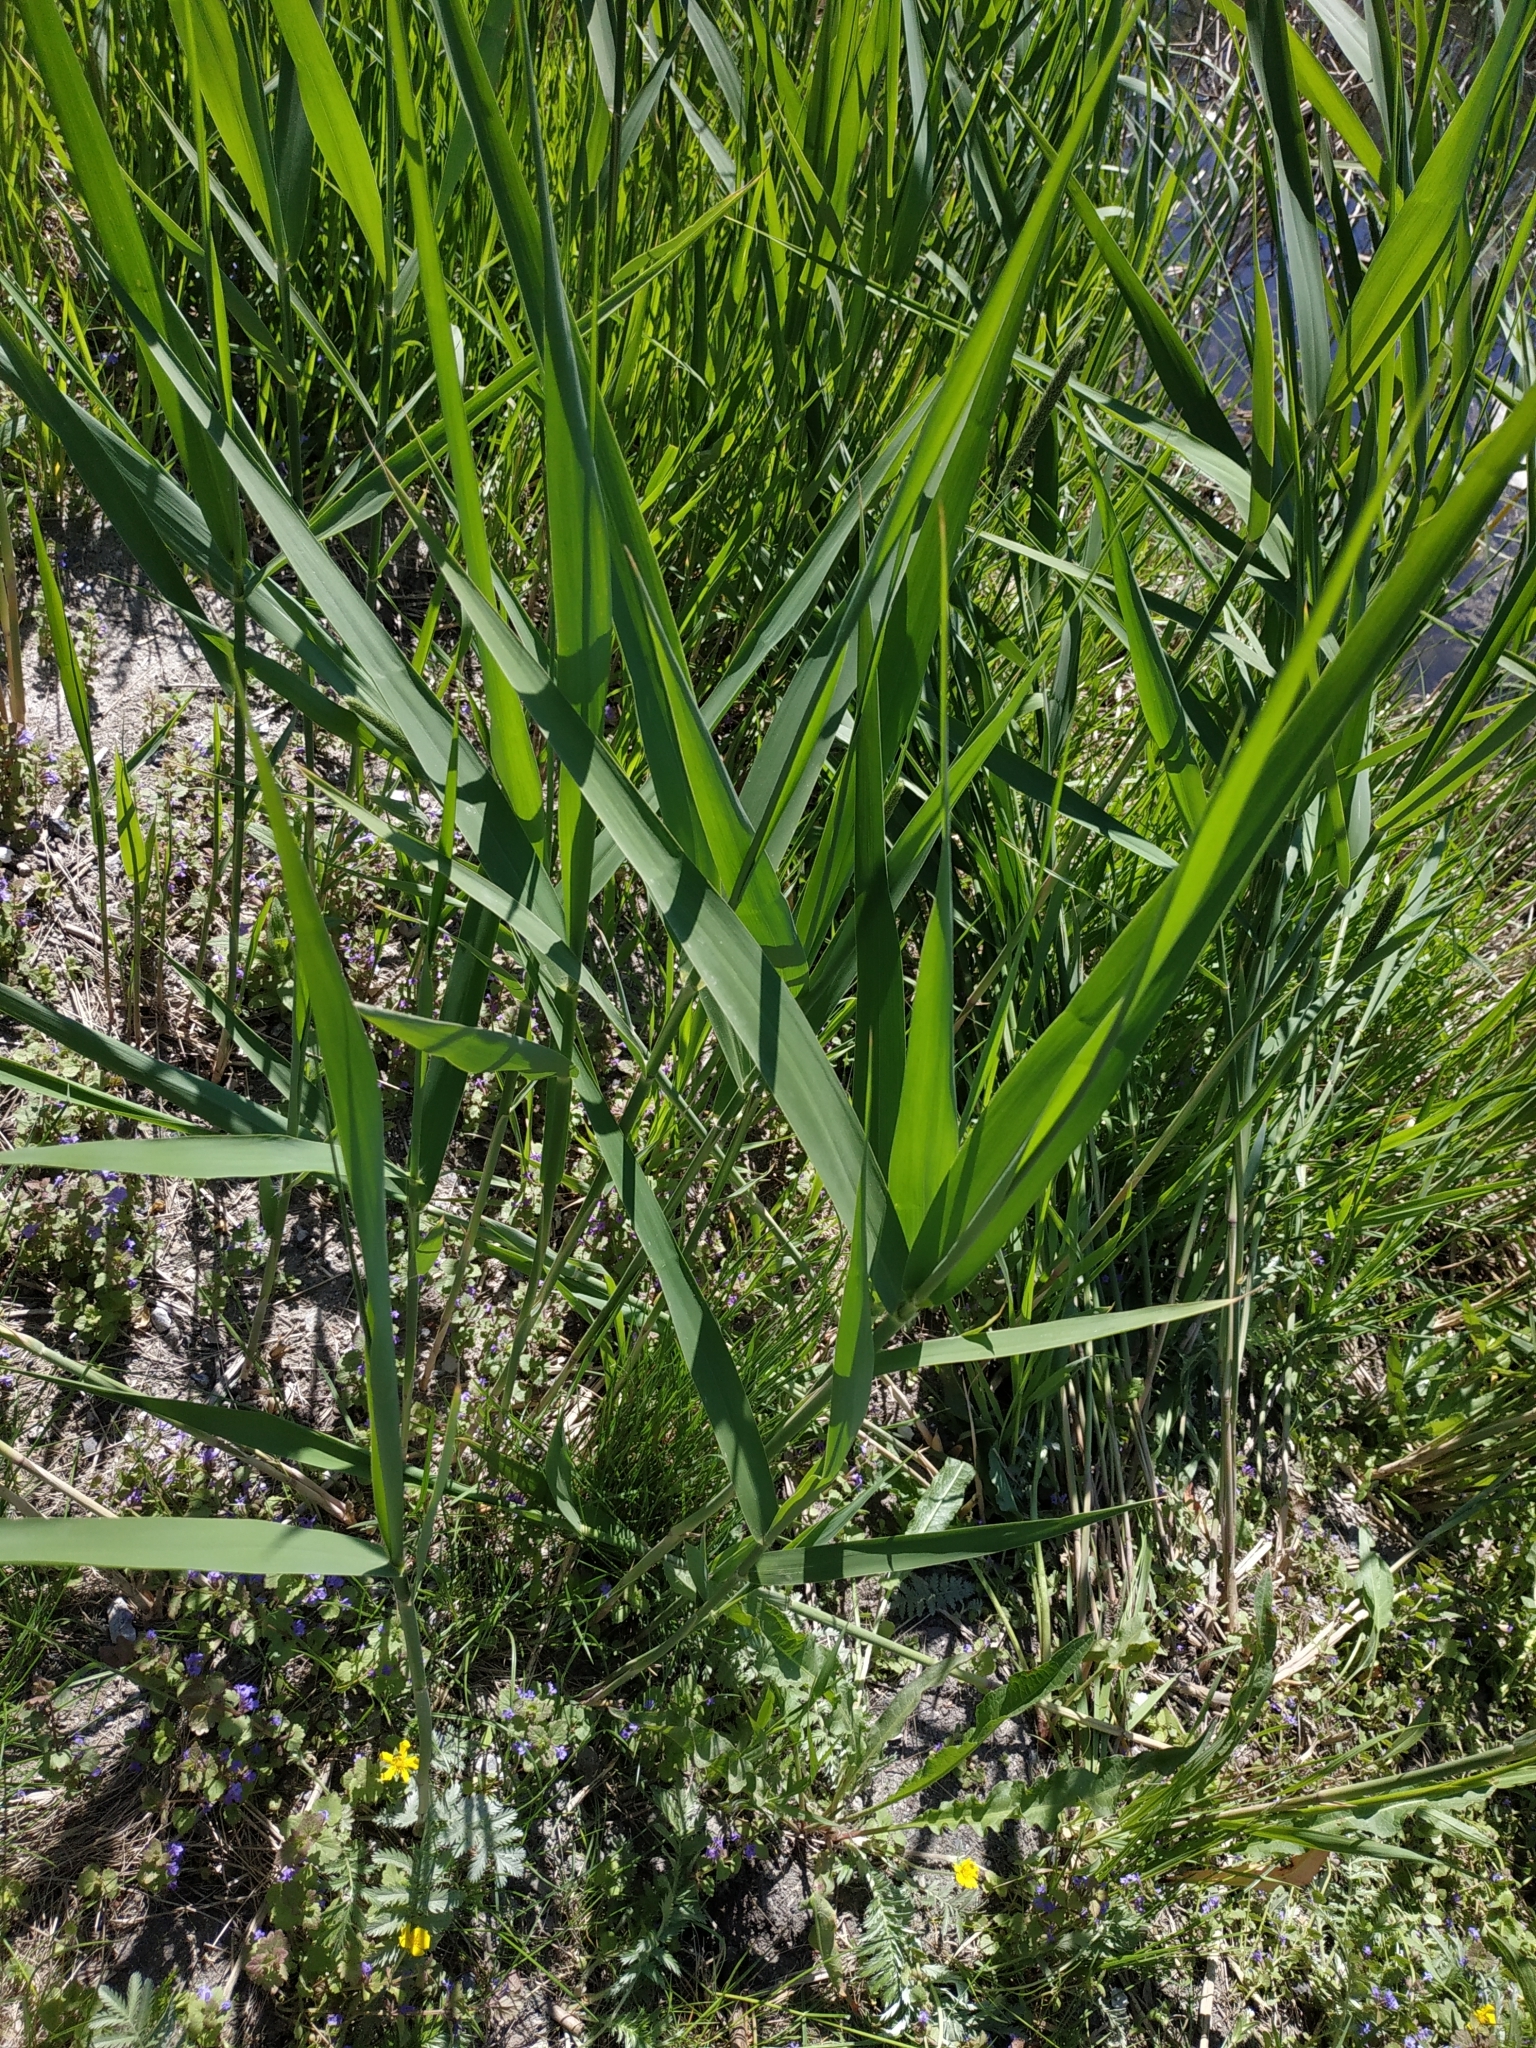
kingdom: Plantae
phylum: Tracheophyta
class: Liliopsida
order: Poales
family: Poaceae
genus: Phragmites
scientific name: Phragmites australis
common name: Common reed
